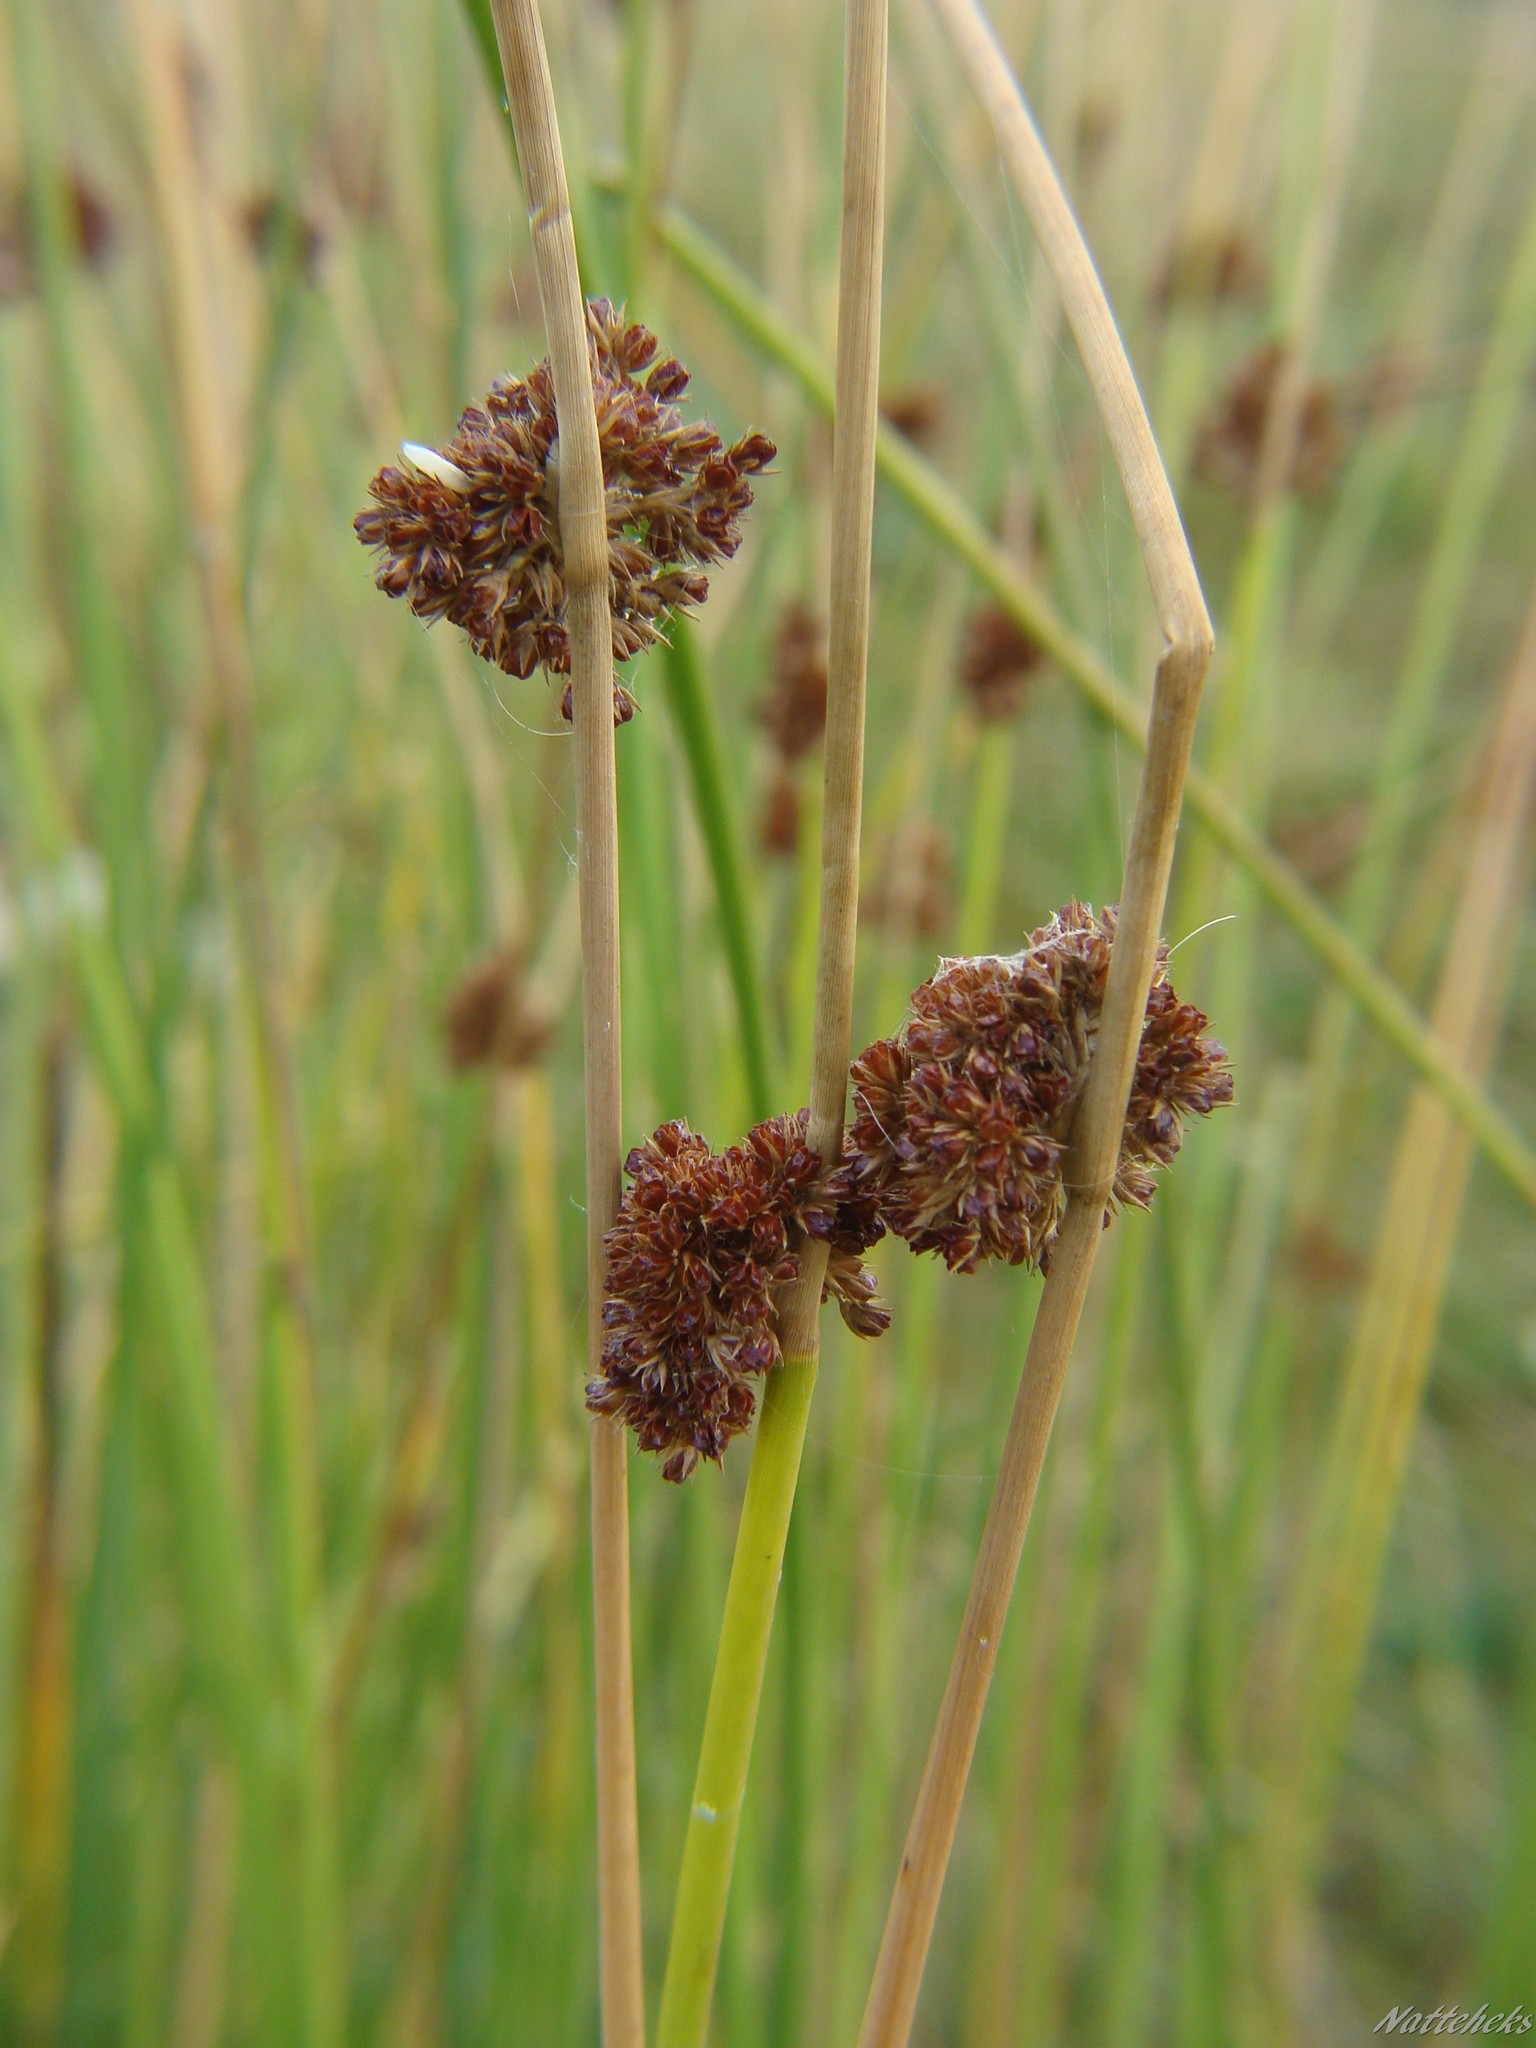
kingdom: Plantae
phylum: Tracheophyta
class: Liliopsida
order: Poales
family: Juncaceae
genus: Juncus
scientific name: Juncus effusus
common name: Soft rush
